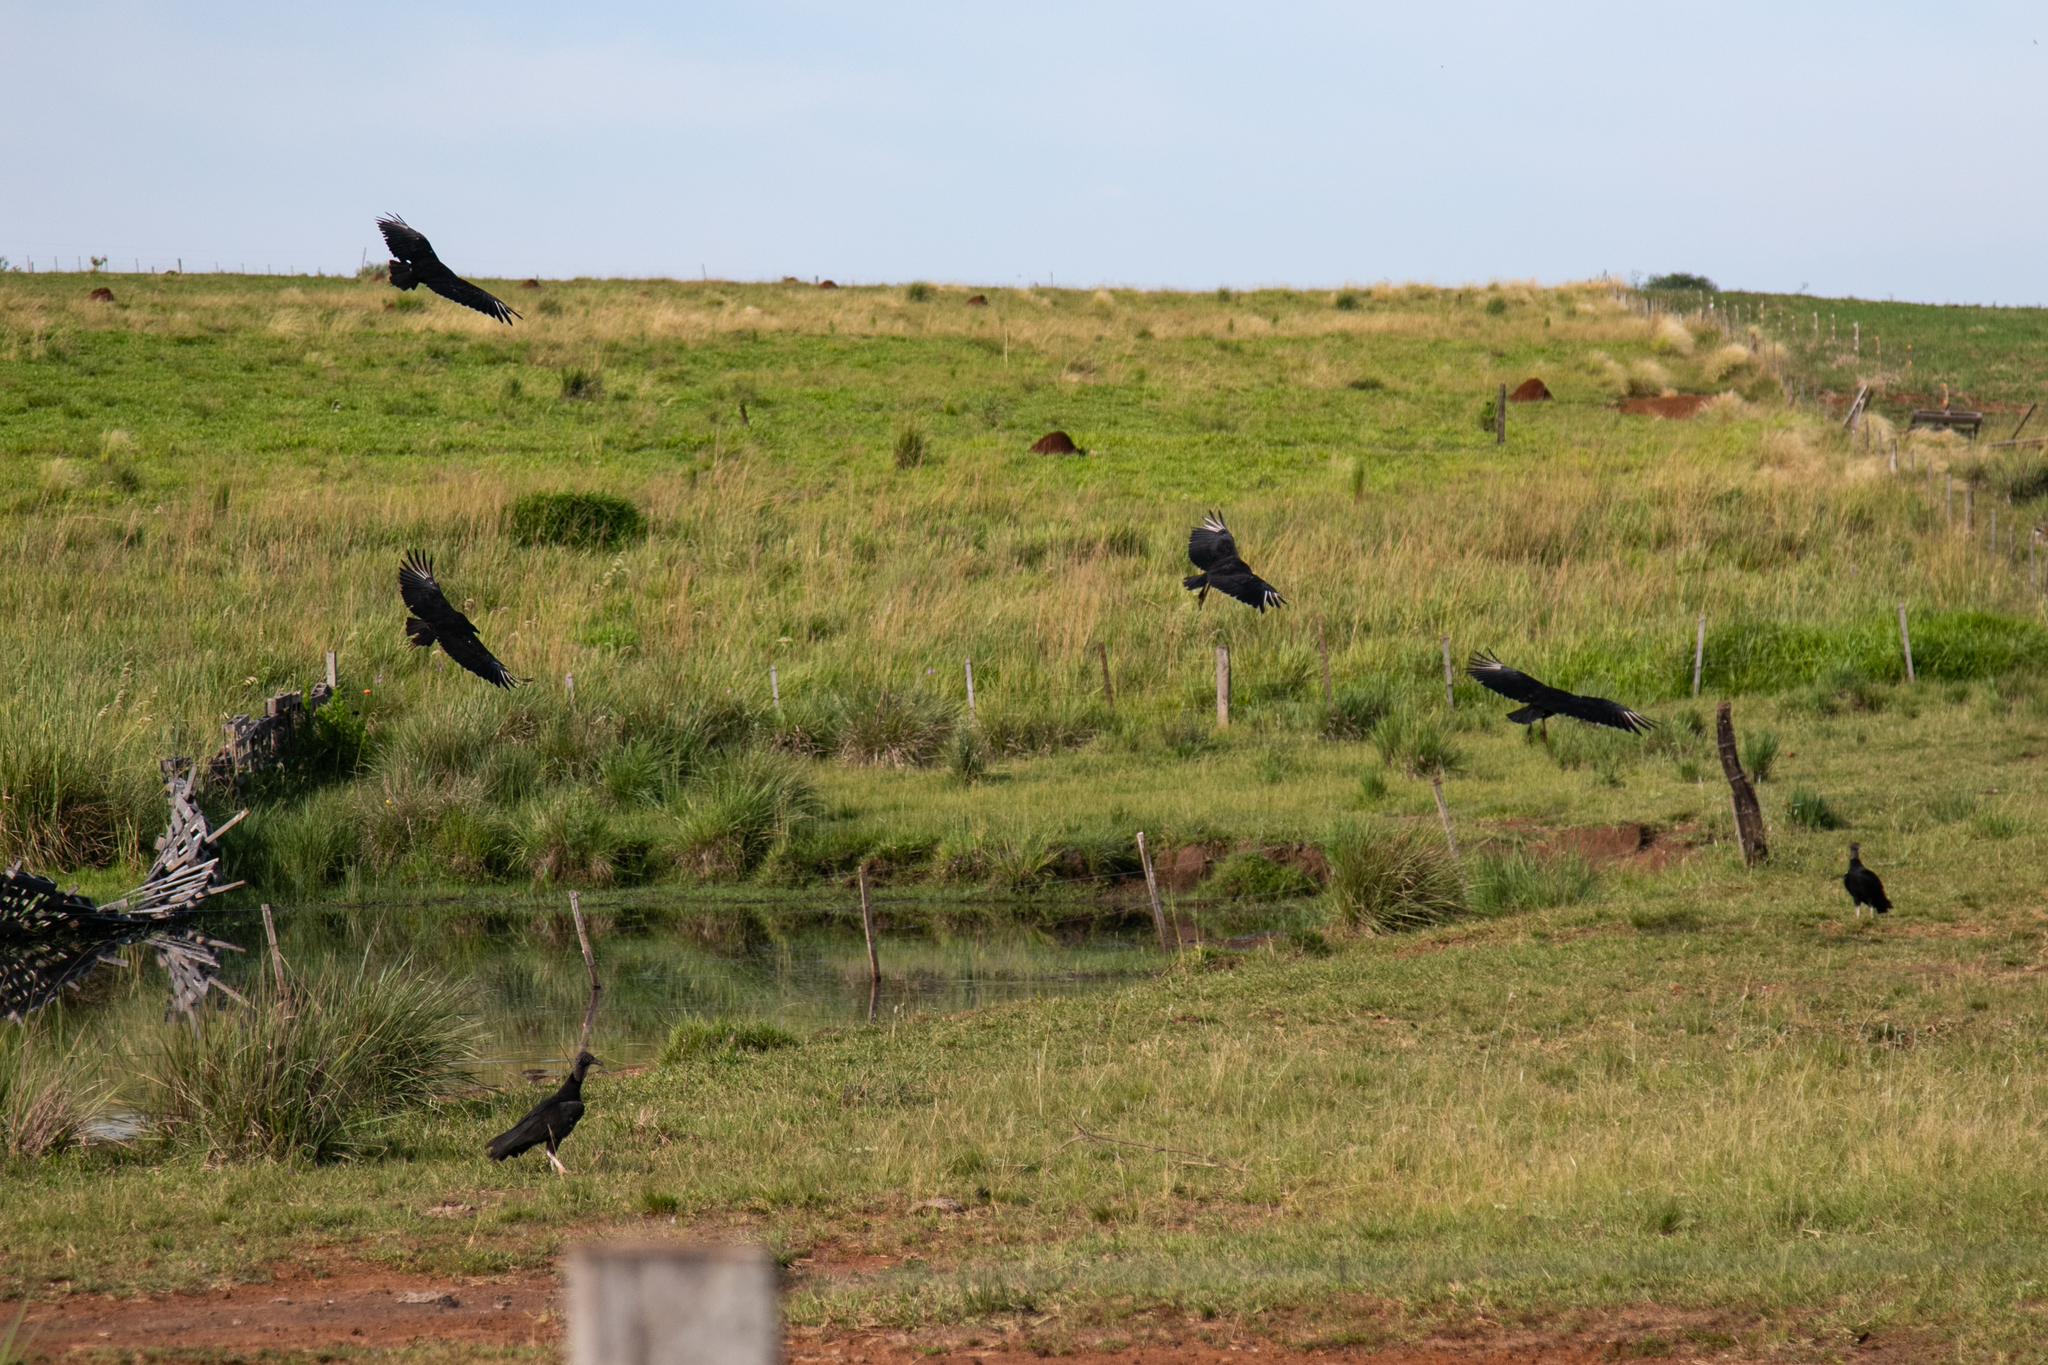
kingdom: Animalia
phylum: Chordata
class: Aves
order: Accipitriformes
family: Cathartidae
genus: Coragyps
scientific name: Coragyps atratus
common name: Black vulture
